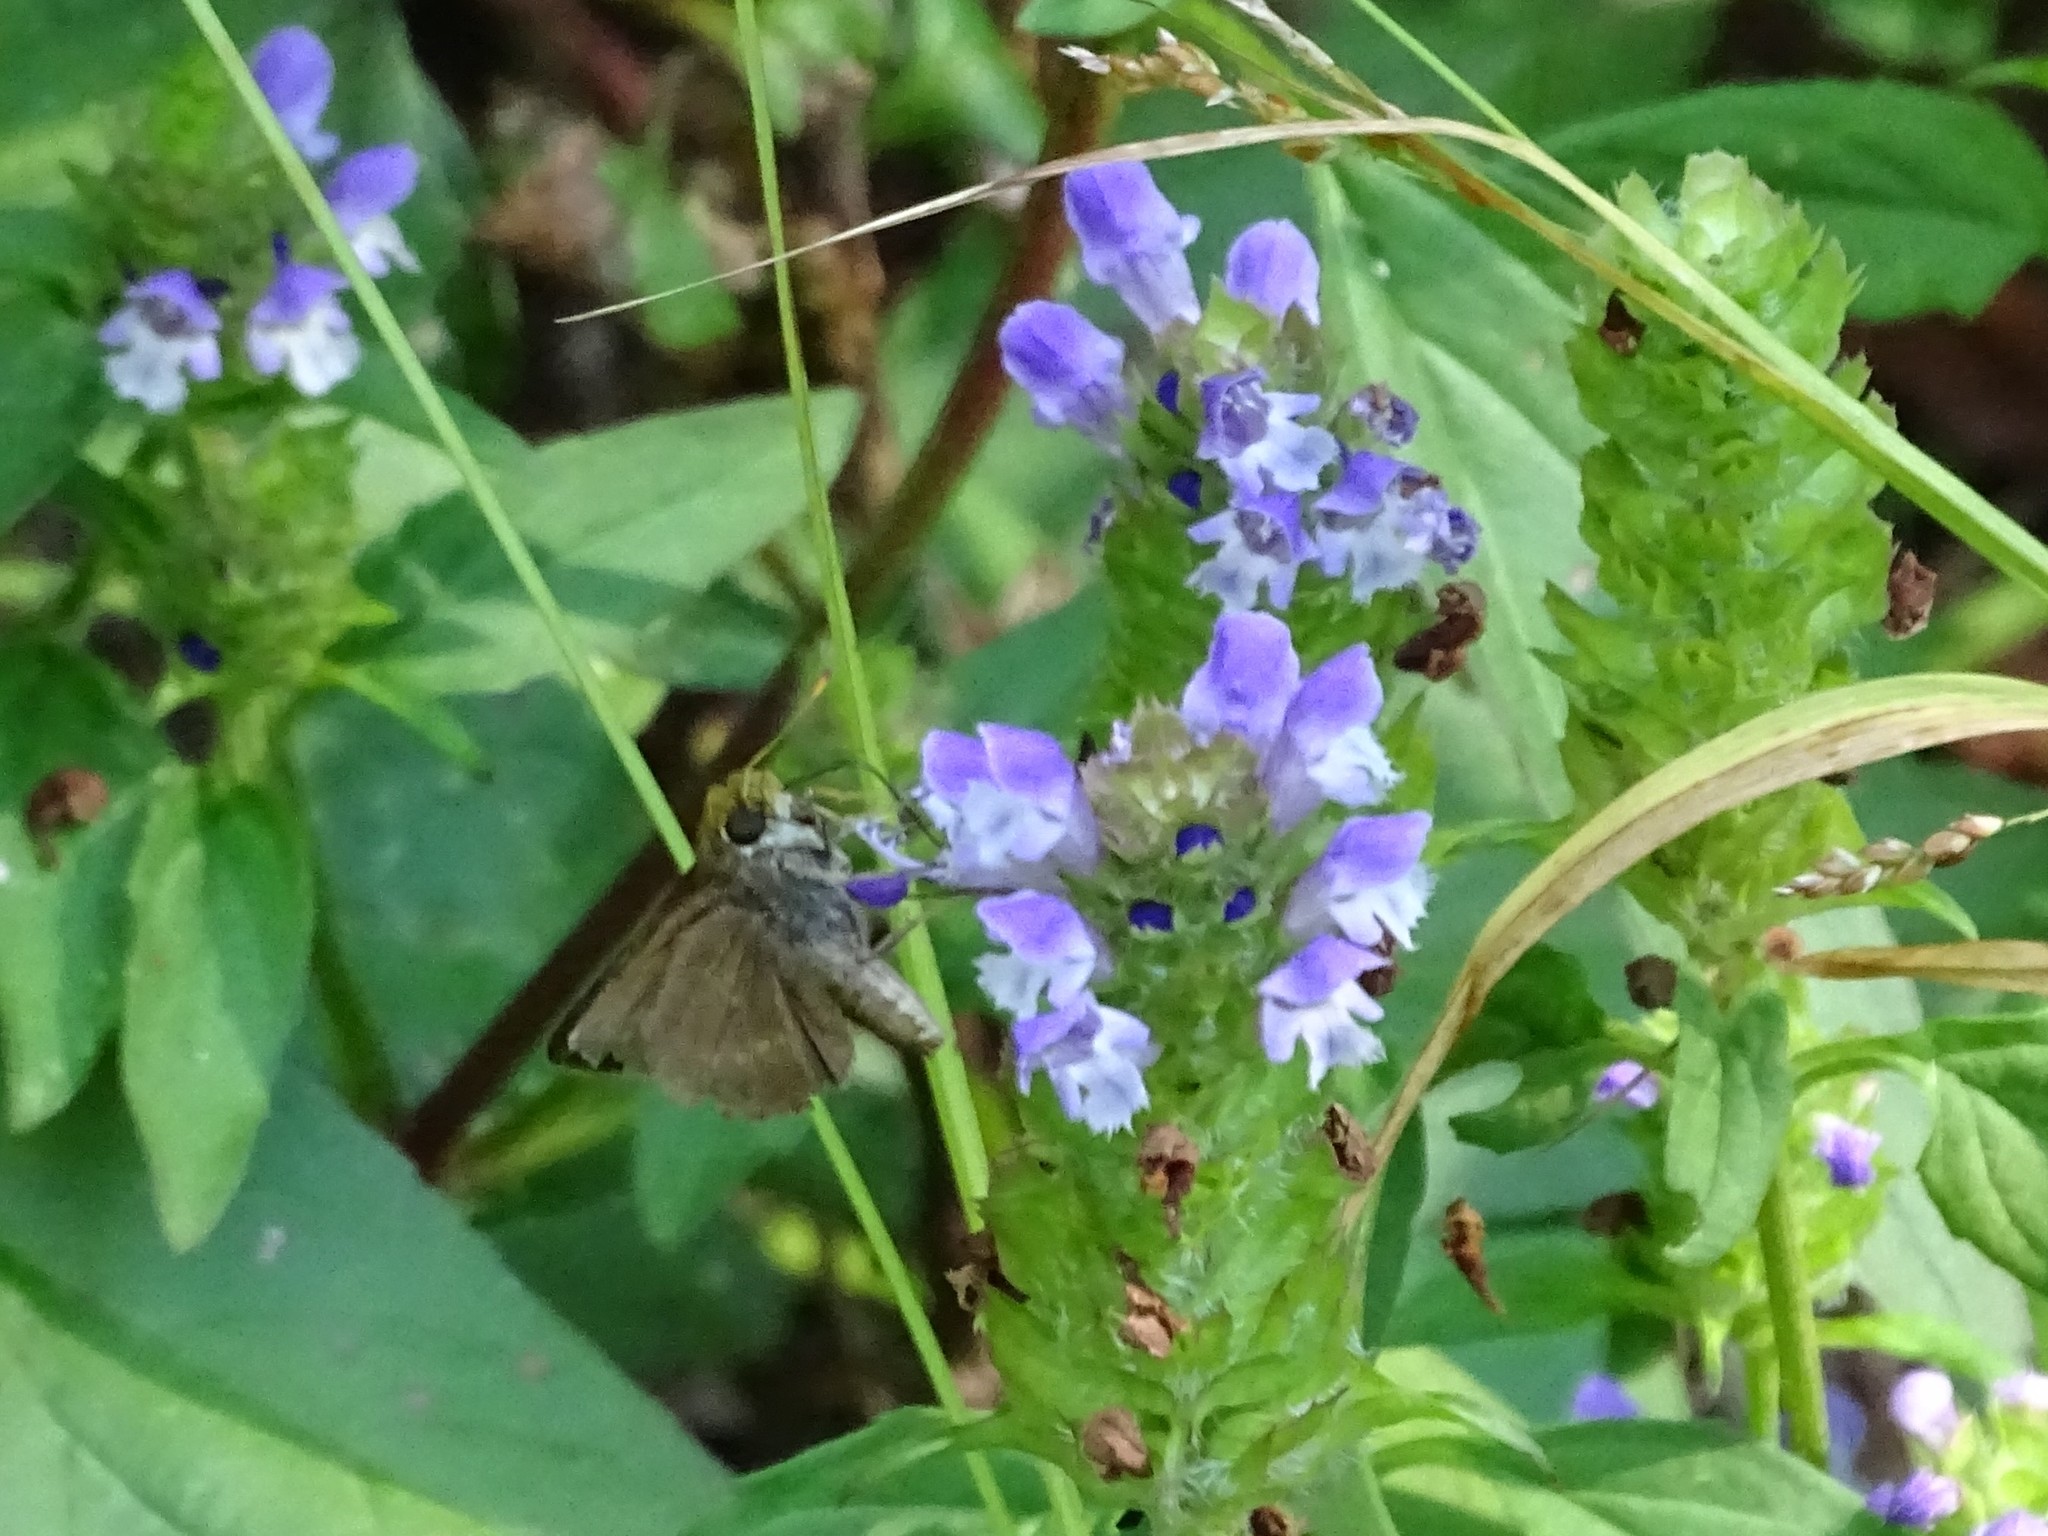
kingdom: Animalia
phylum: Arthropoda
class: Insecta
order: Lepidoptera
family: Hesperiidae
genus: Euphyes
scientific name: Euphyes vestris
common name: Dun skipper
